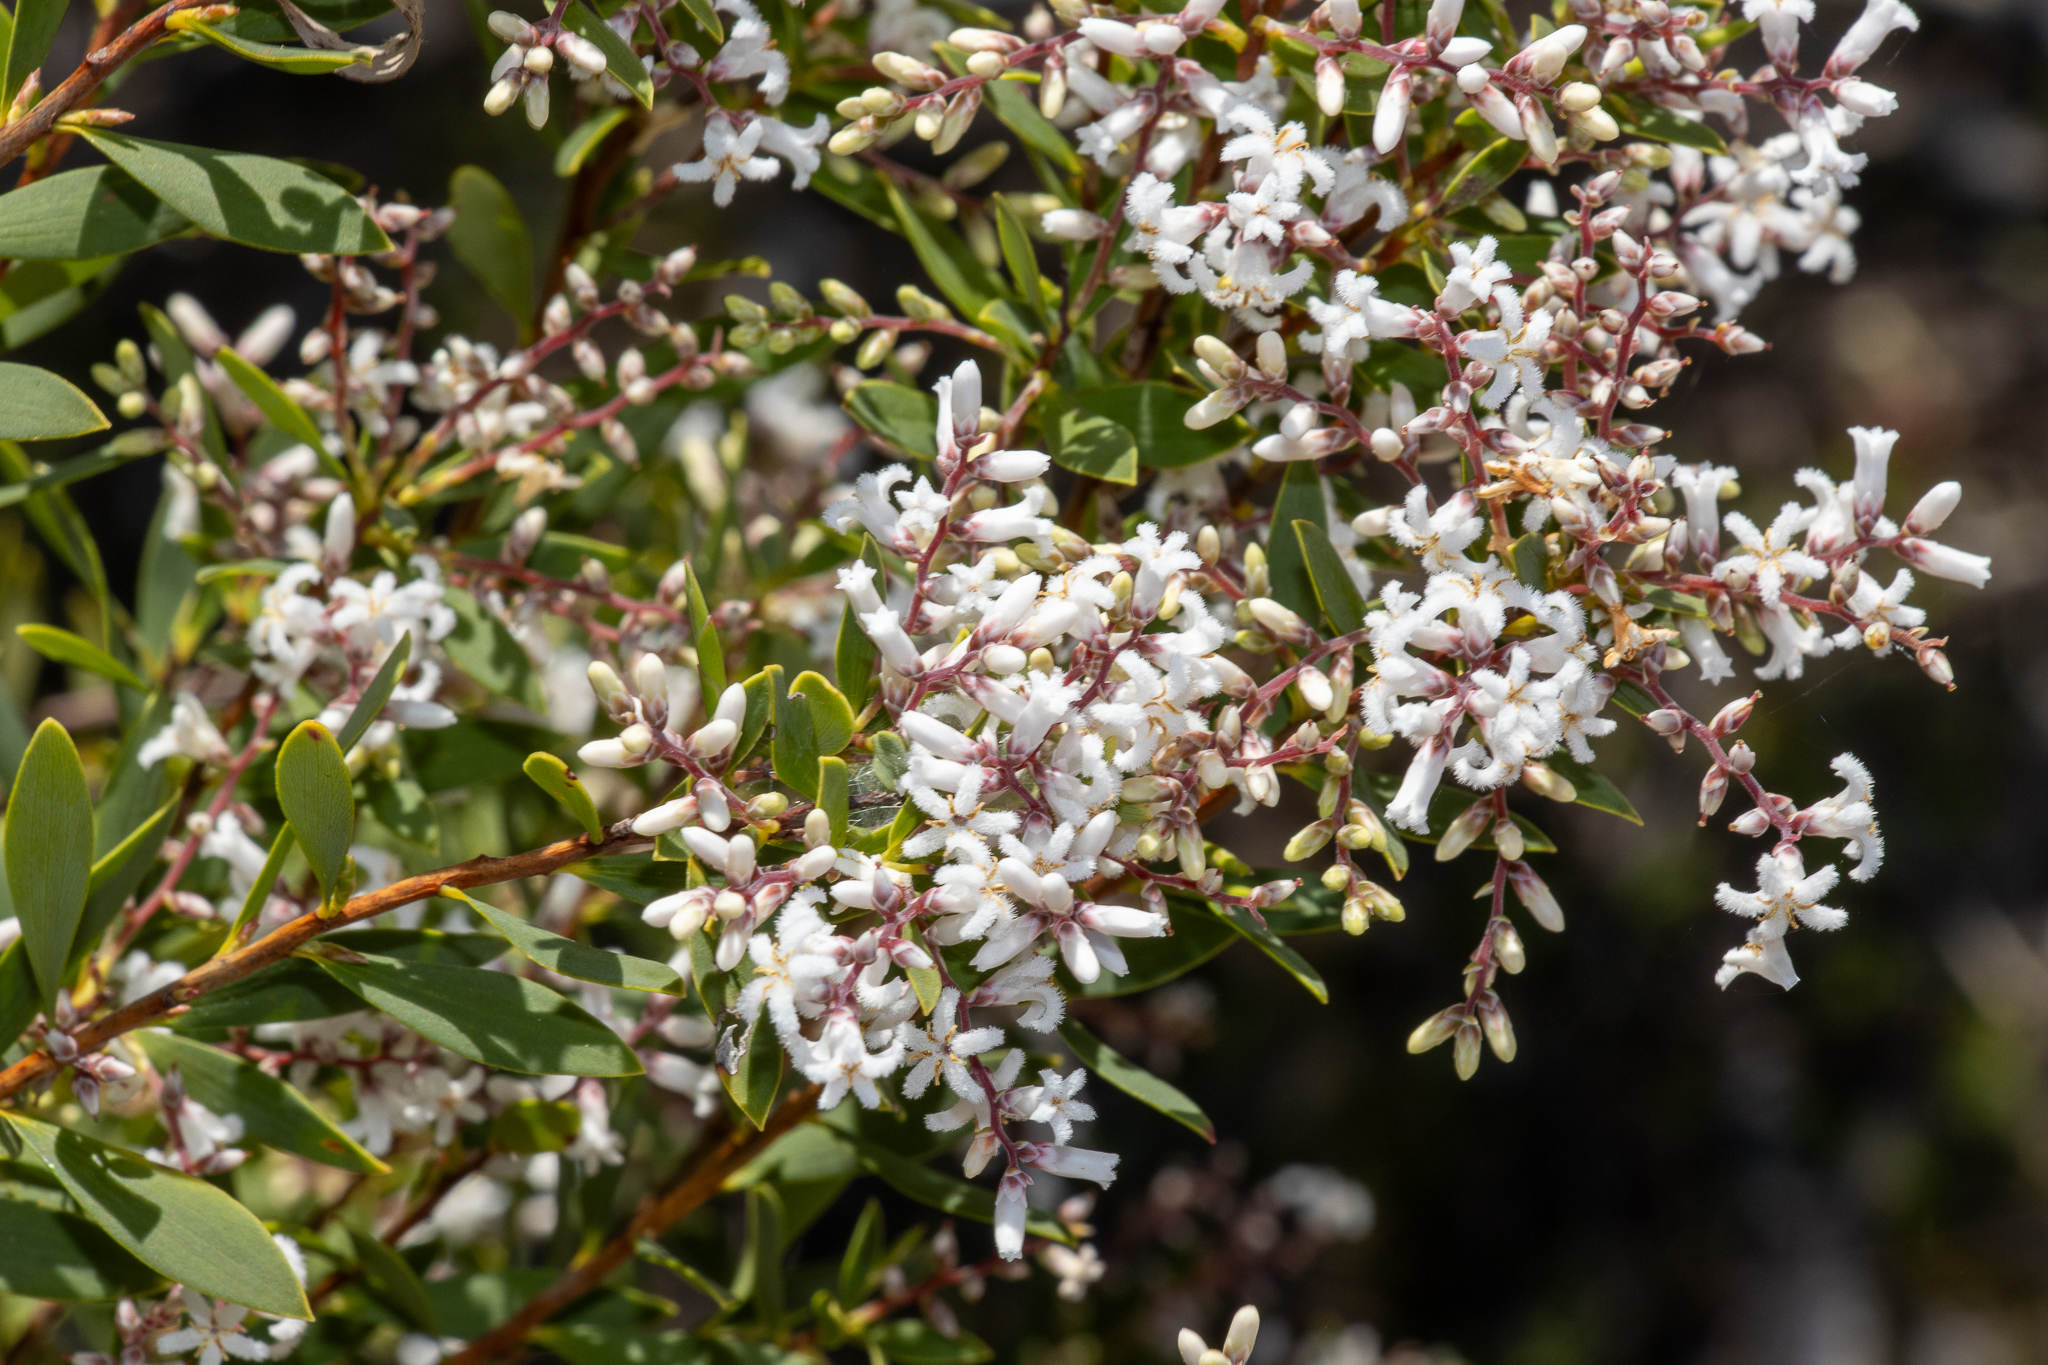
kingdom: Plantae
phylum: Tracheophyta
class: Magnoliopsida
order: Ericales
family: Ericaceae
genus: Leptecophylla
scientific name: Leptecophylla parvifolia
